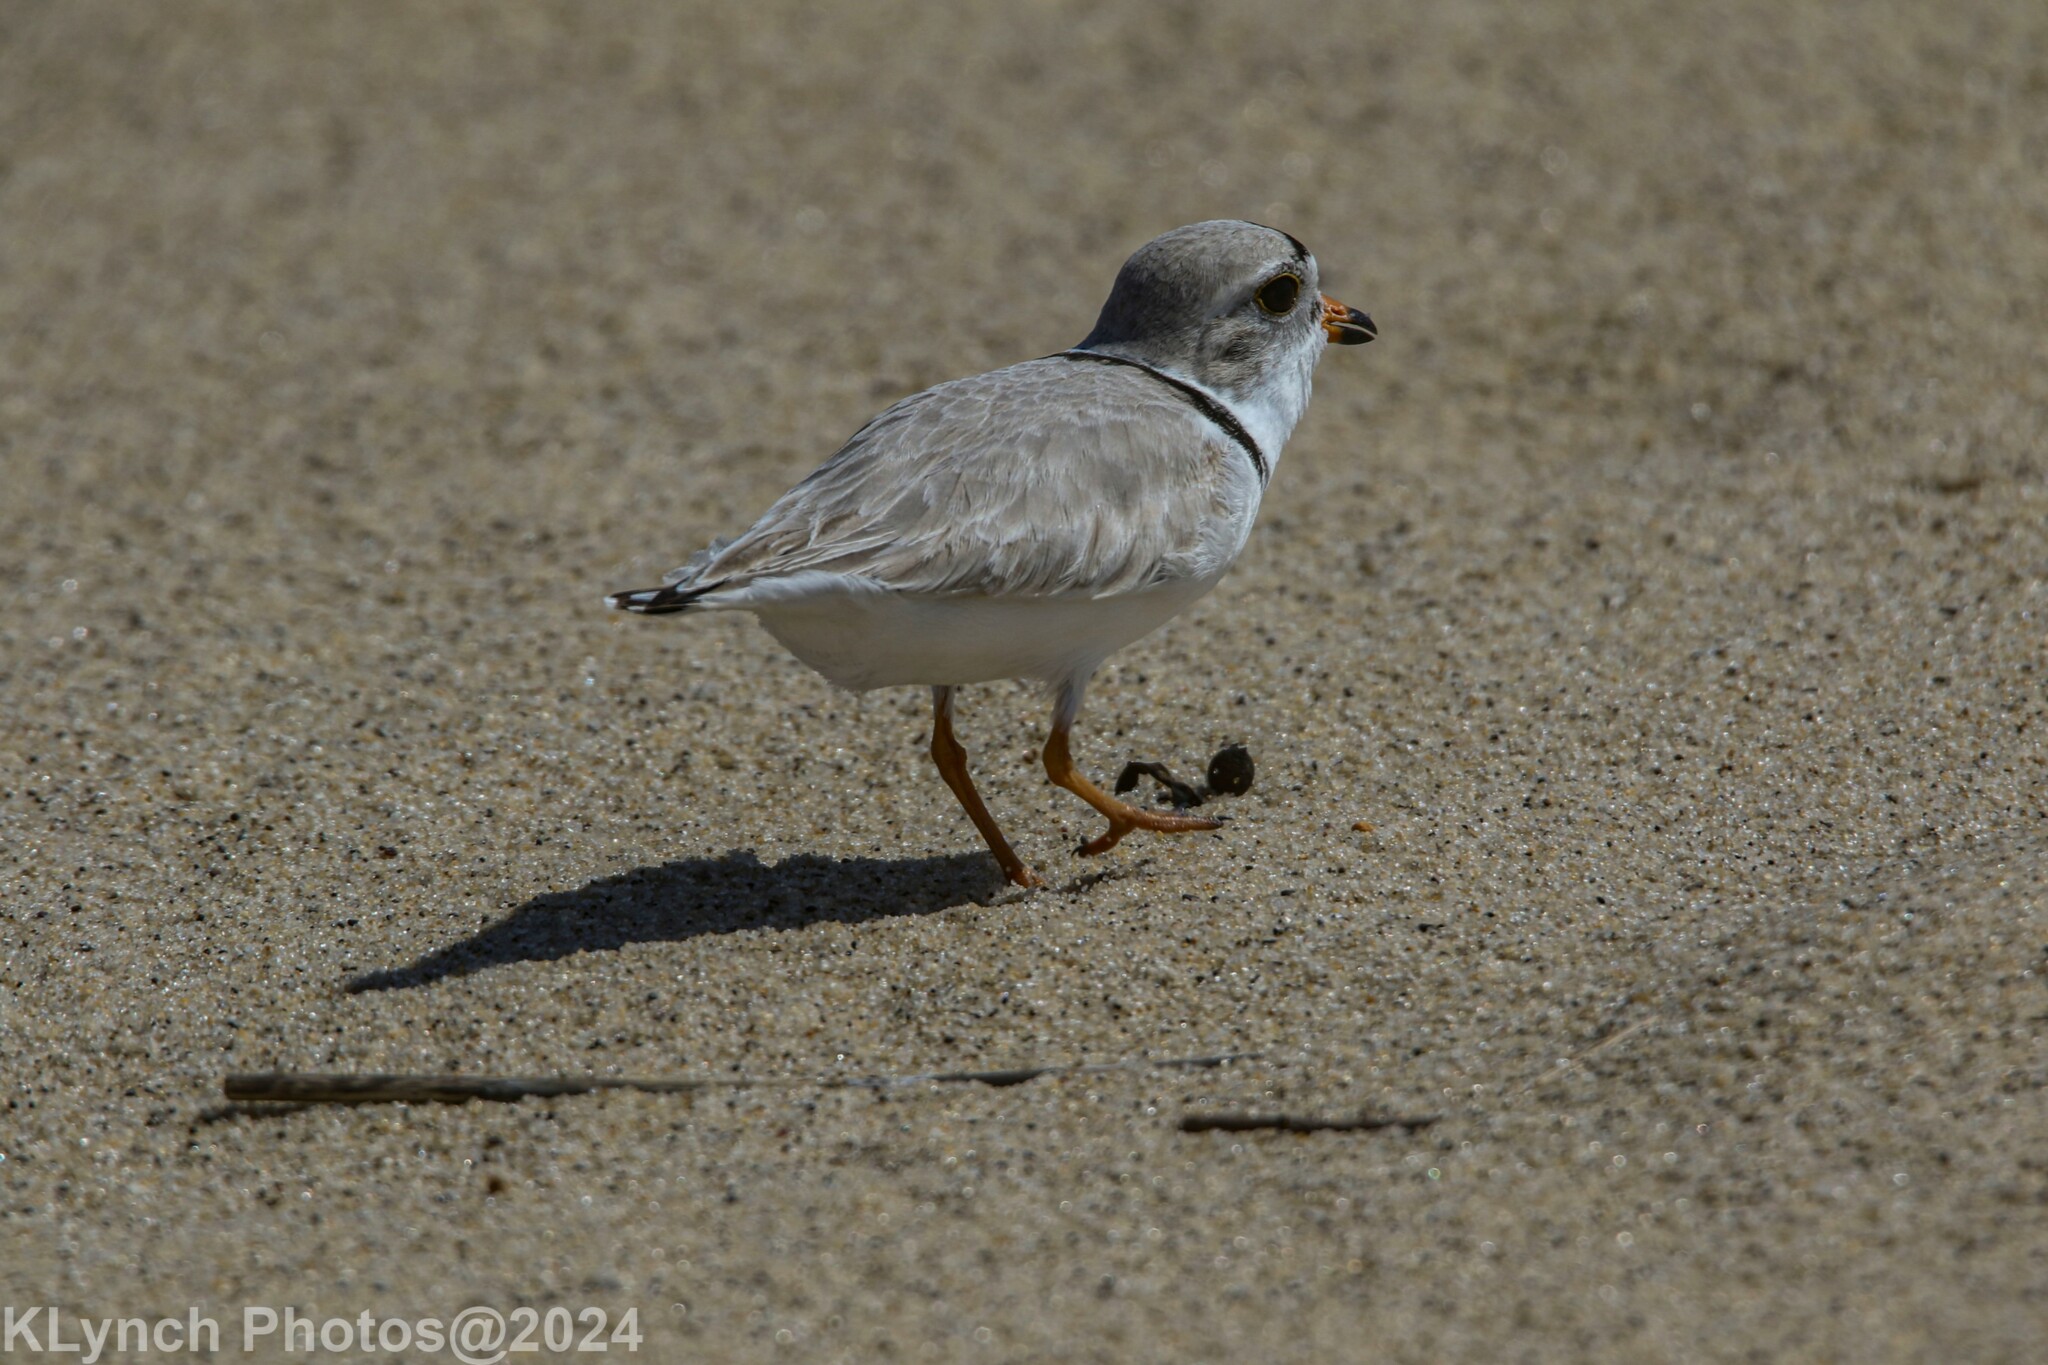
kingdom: Animalia
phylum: Chordata
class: Aves
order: Charadriiformes
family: Charadriidae
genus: Charadrius
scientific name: Charadrius melodus
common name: Piping plover
